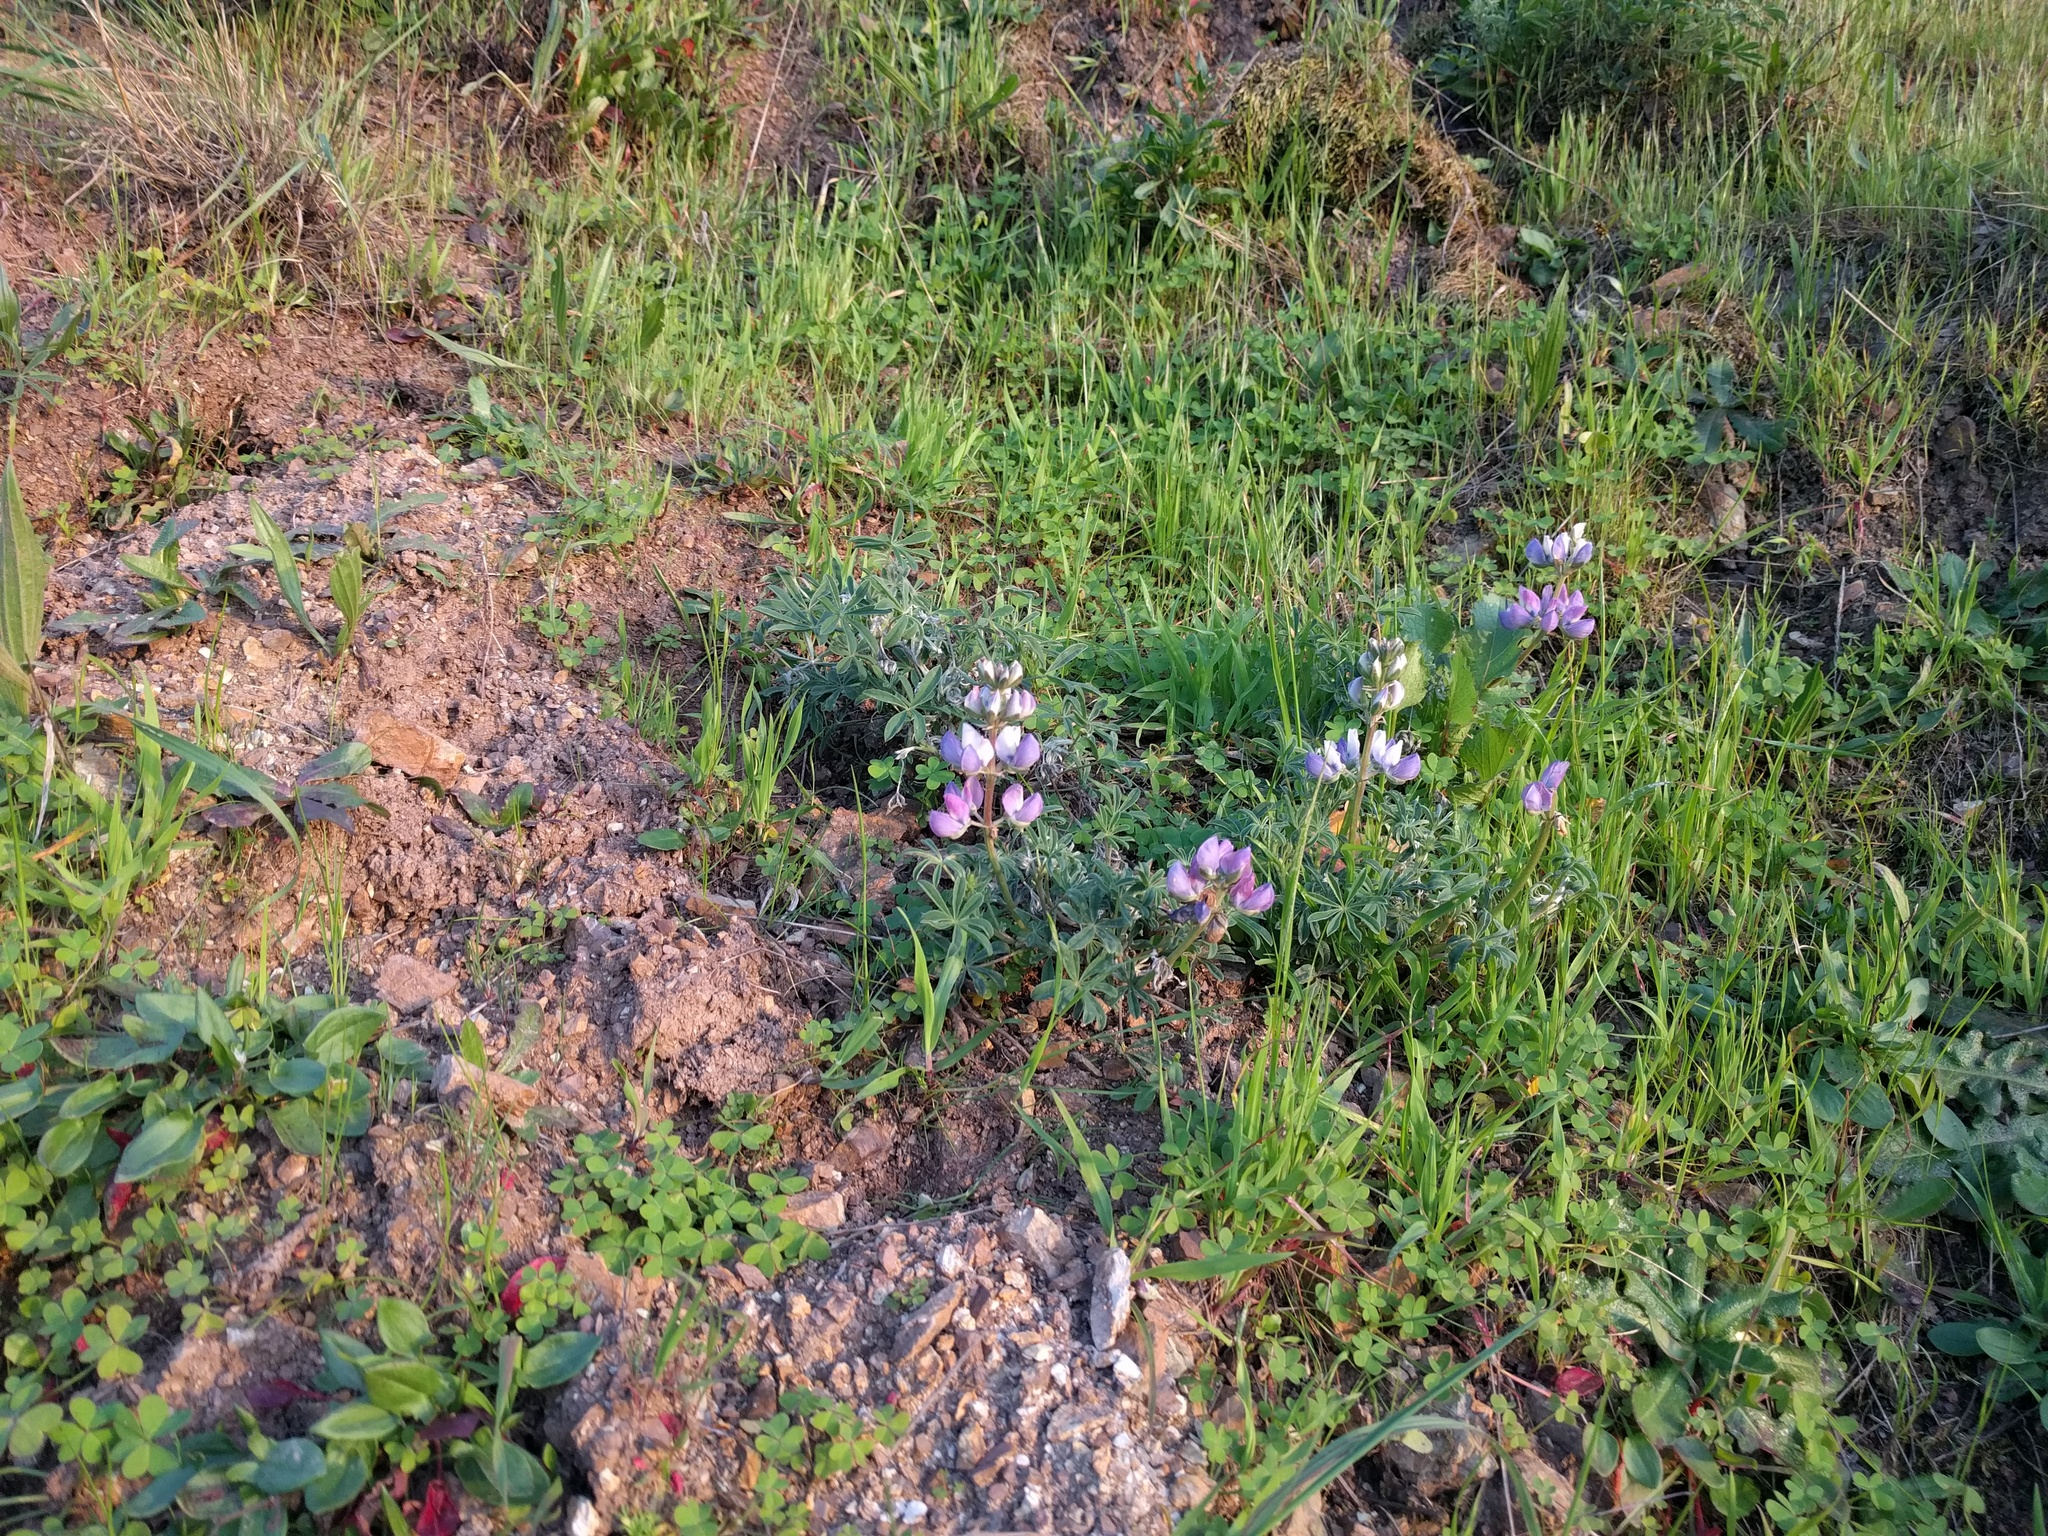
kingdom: Plantae
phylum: Tracheophyta
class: Magnoliopsida
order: Fabales
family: Fabaceae
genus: Lupinus
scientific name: Lupinus variicolor
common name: Lindley's varied lupine
